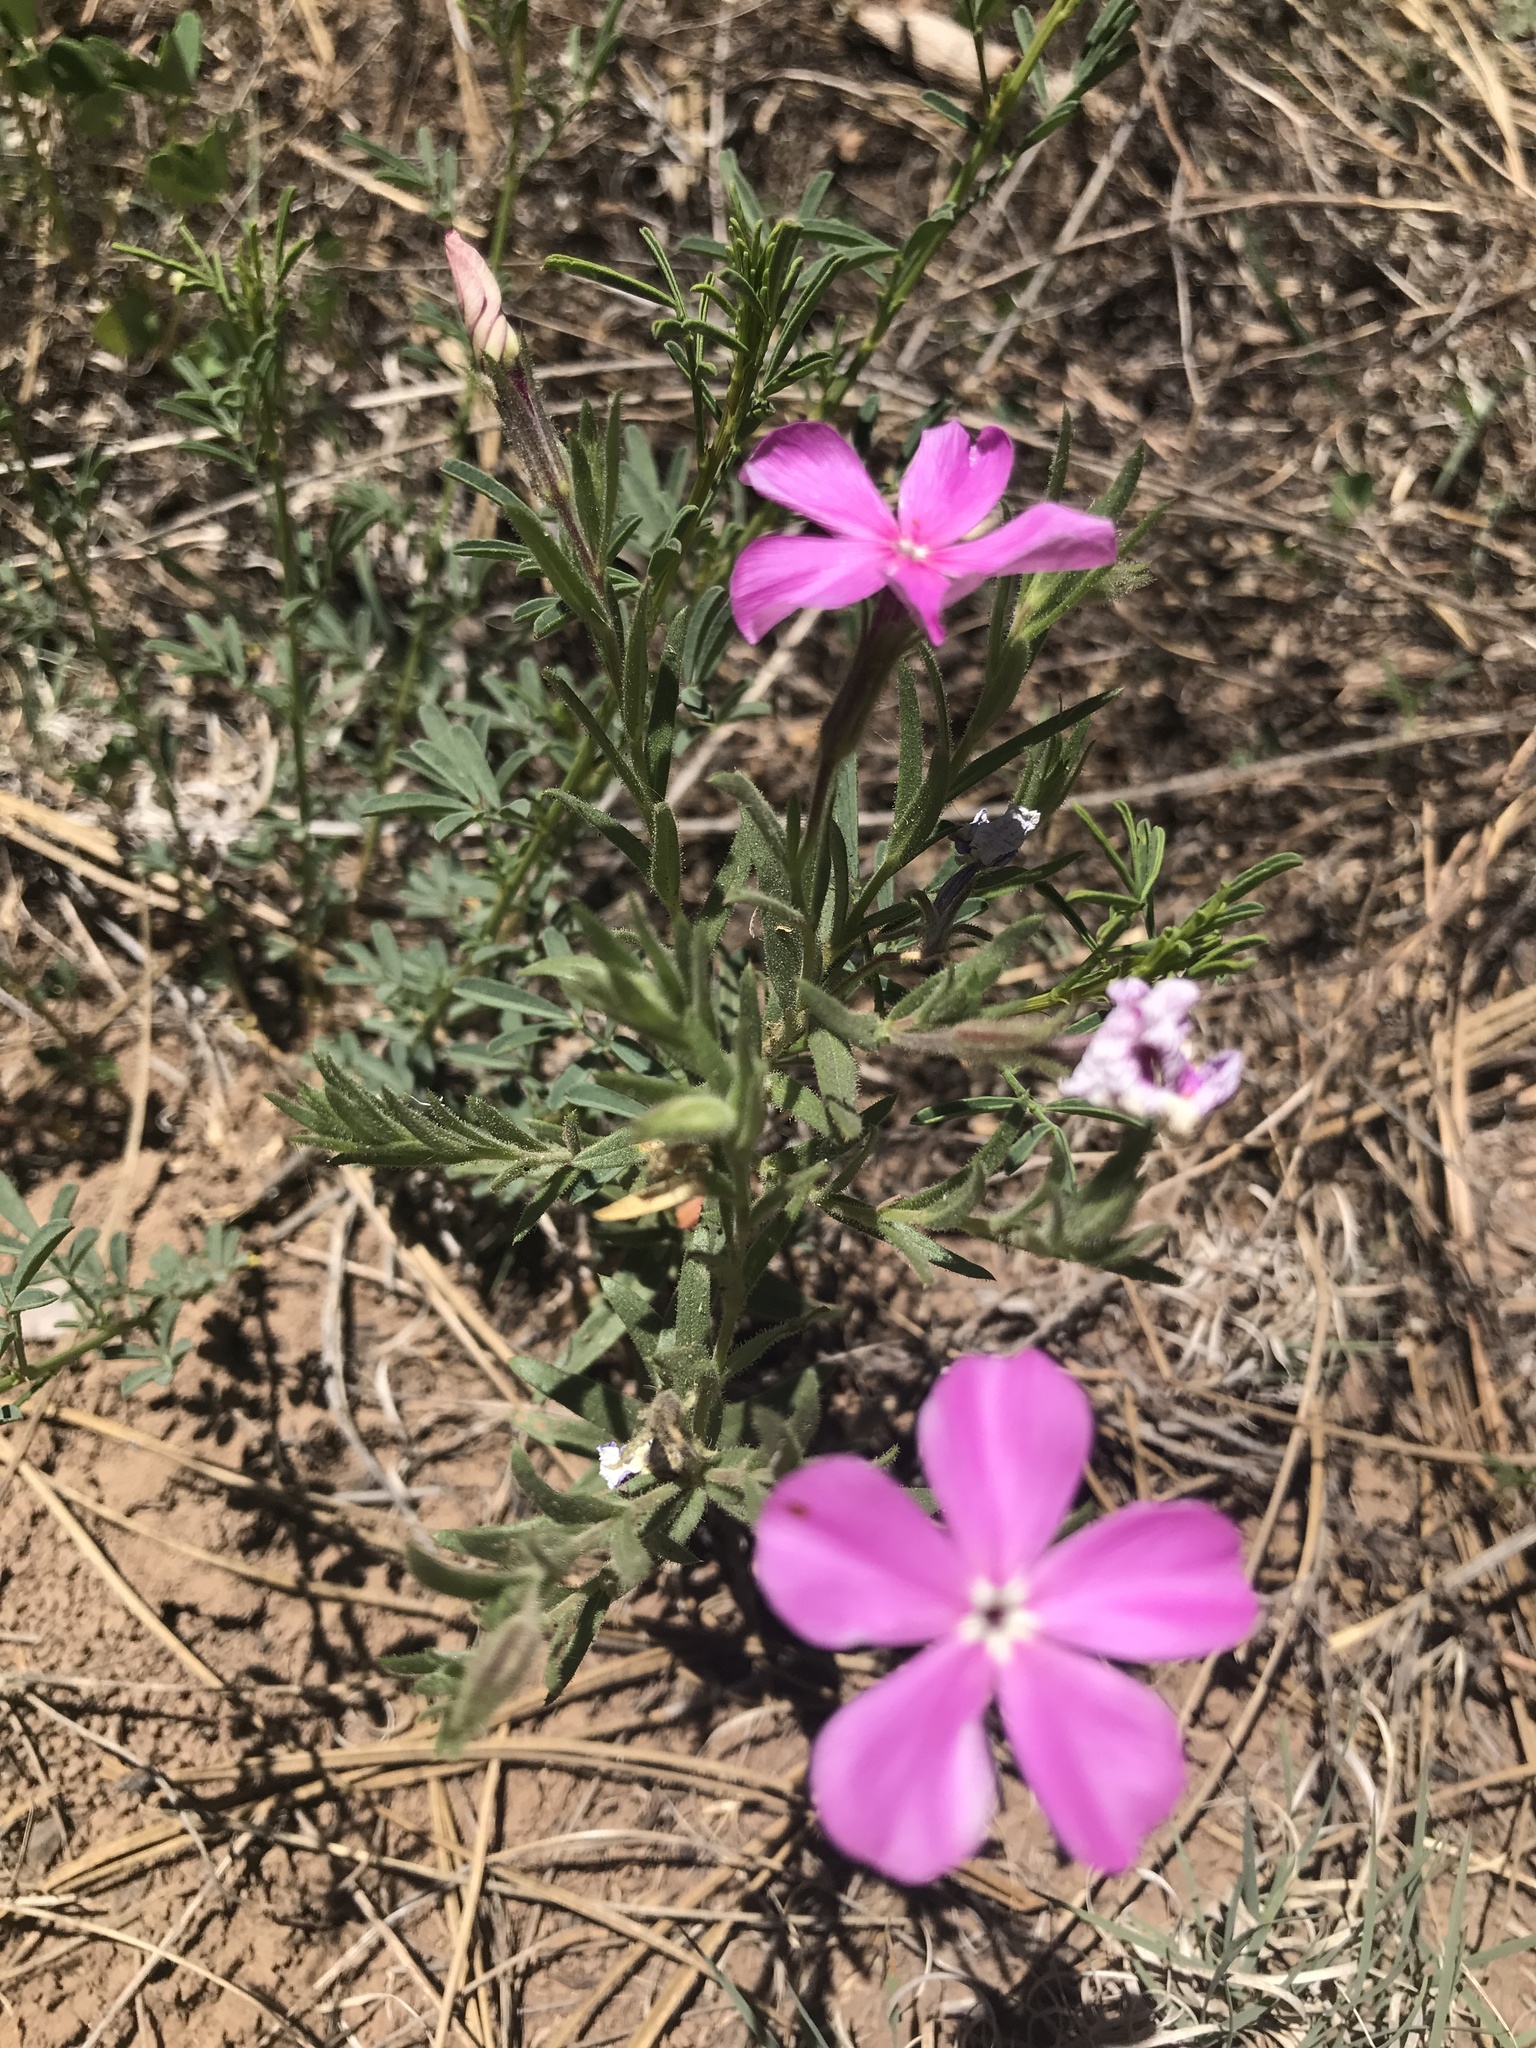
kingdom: Plantae
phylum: Tracheophyta
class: Magnoliopsida
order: Ericales
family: Polemoniaceae
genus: Phlox
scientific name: Phlox nana
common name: Santa fe phlox
